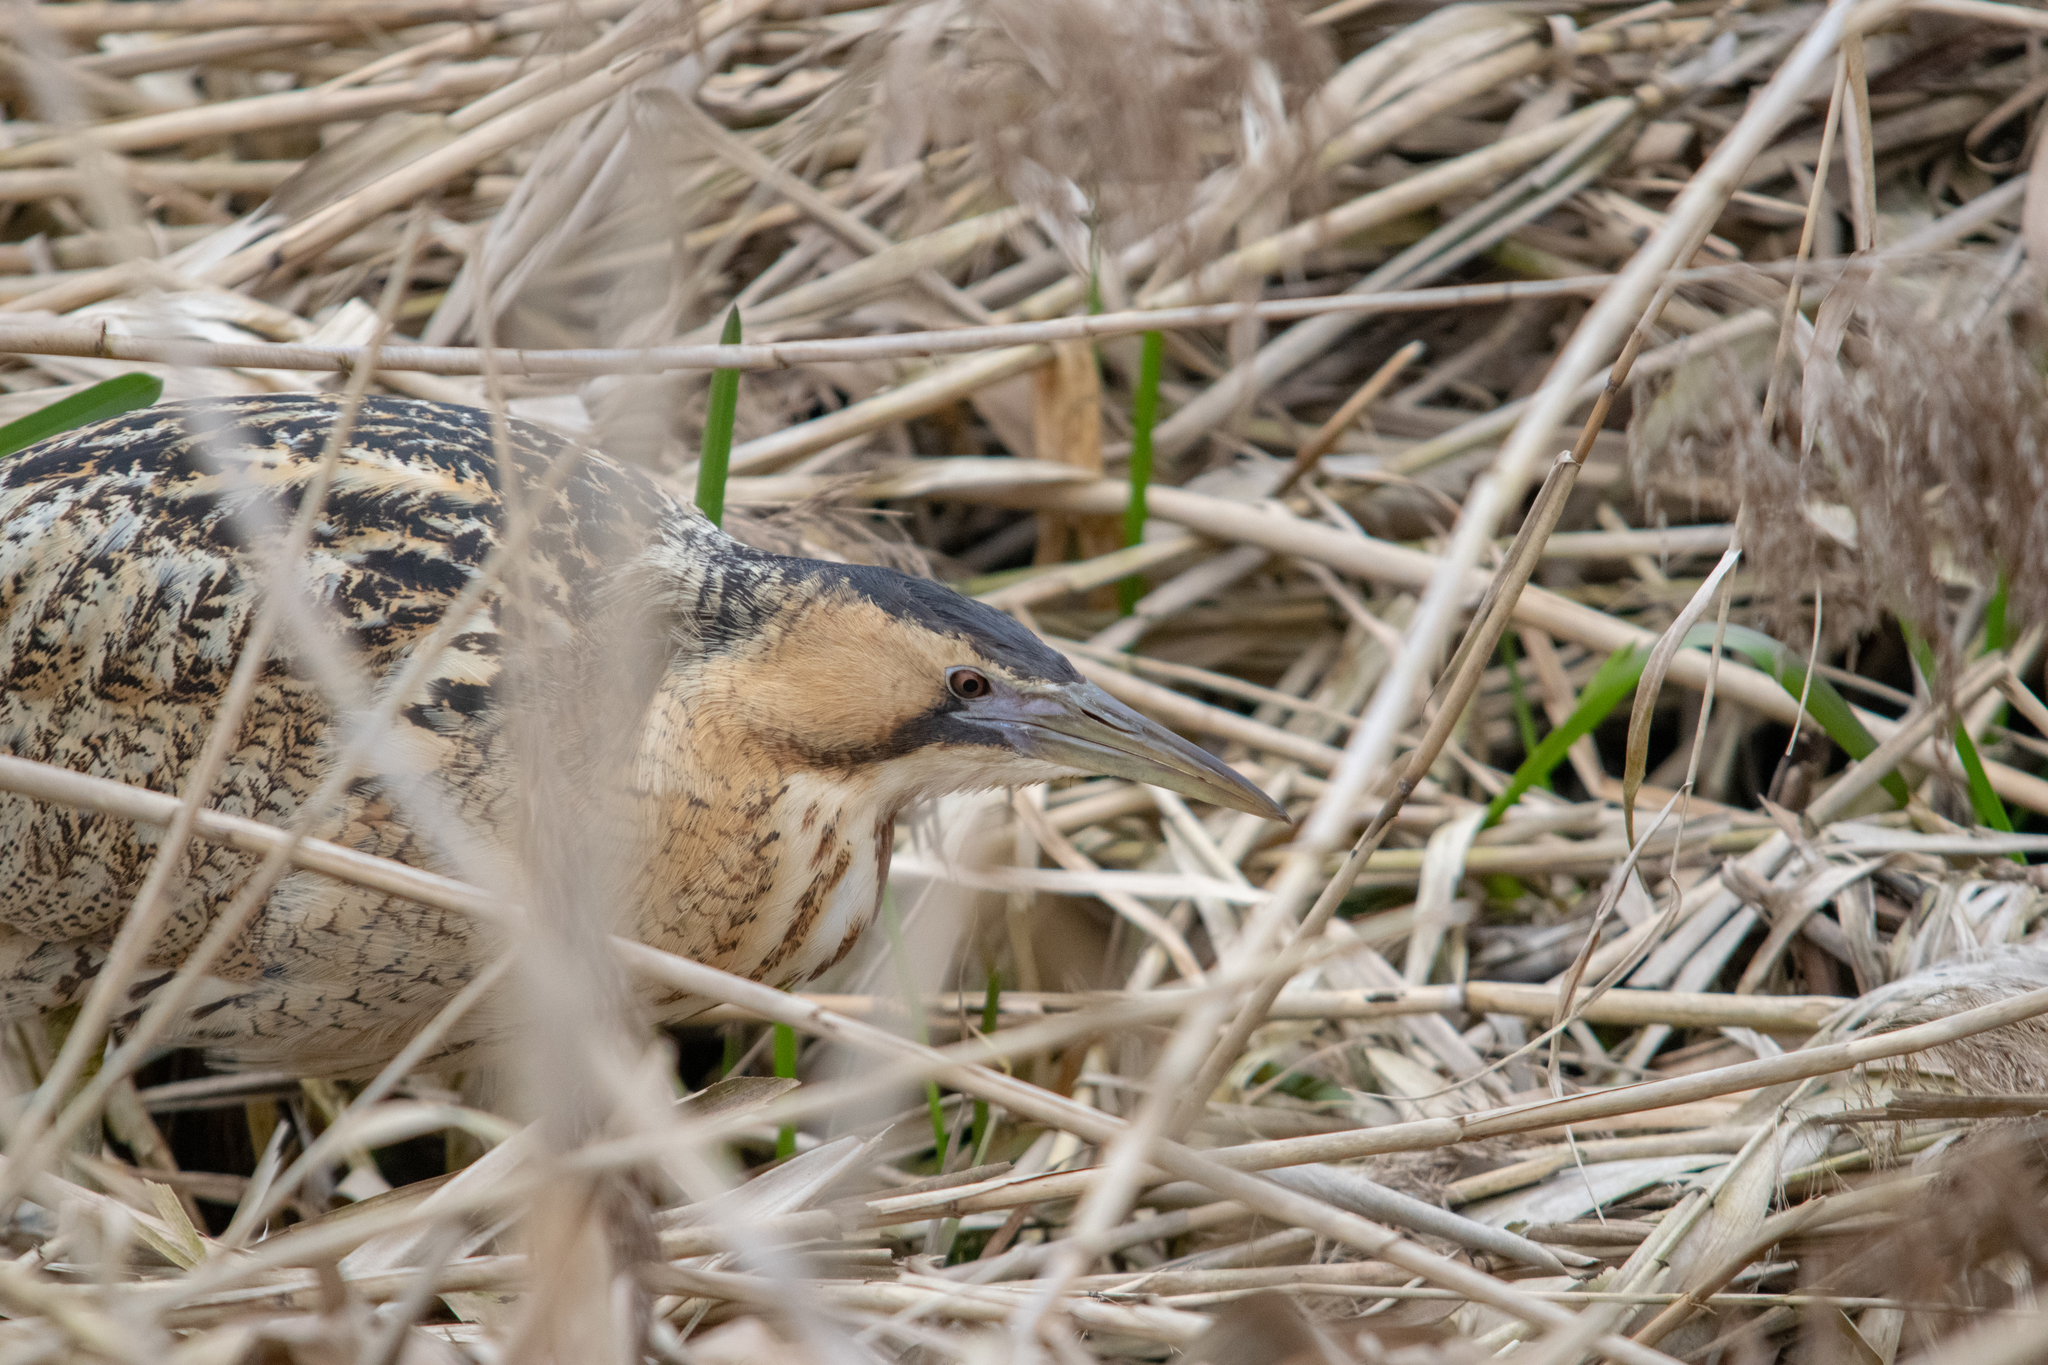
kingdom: Animalia
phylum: Chordata
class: Aves
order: Pelecaniformes
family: Ardeidae
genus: Botaurus
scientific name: Botaurus stellaris
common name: Eurasian bittern
